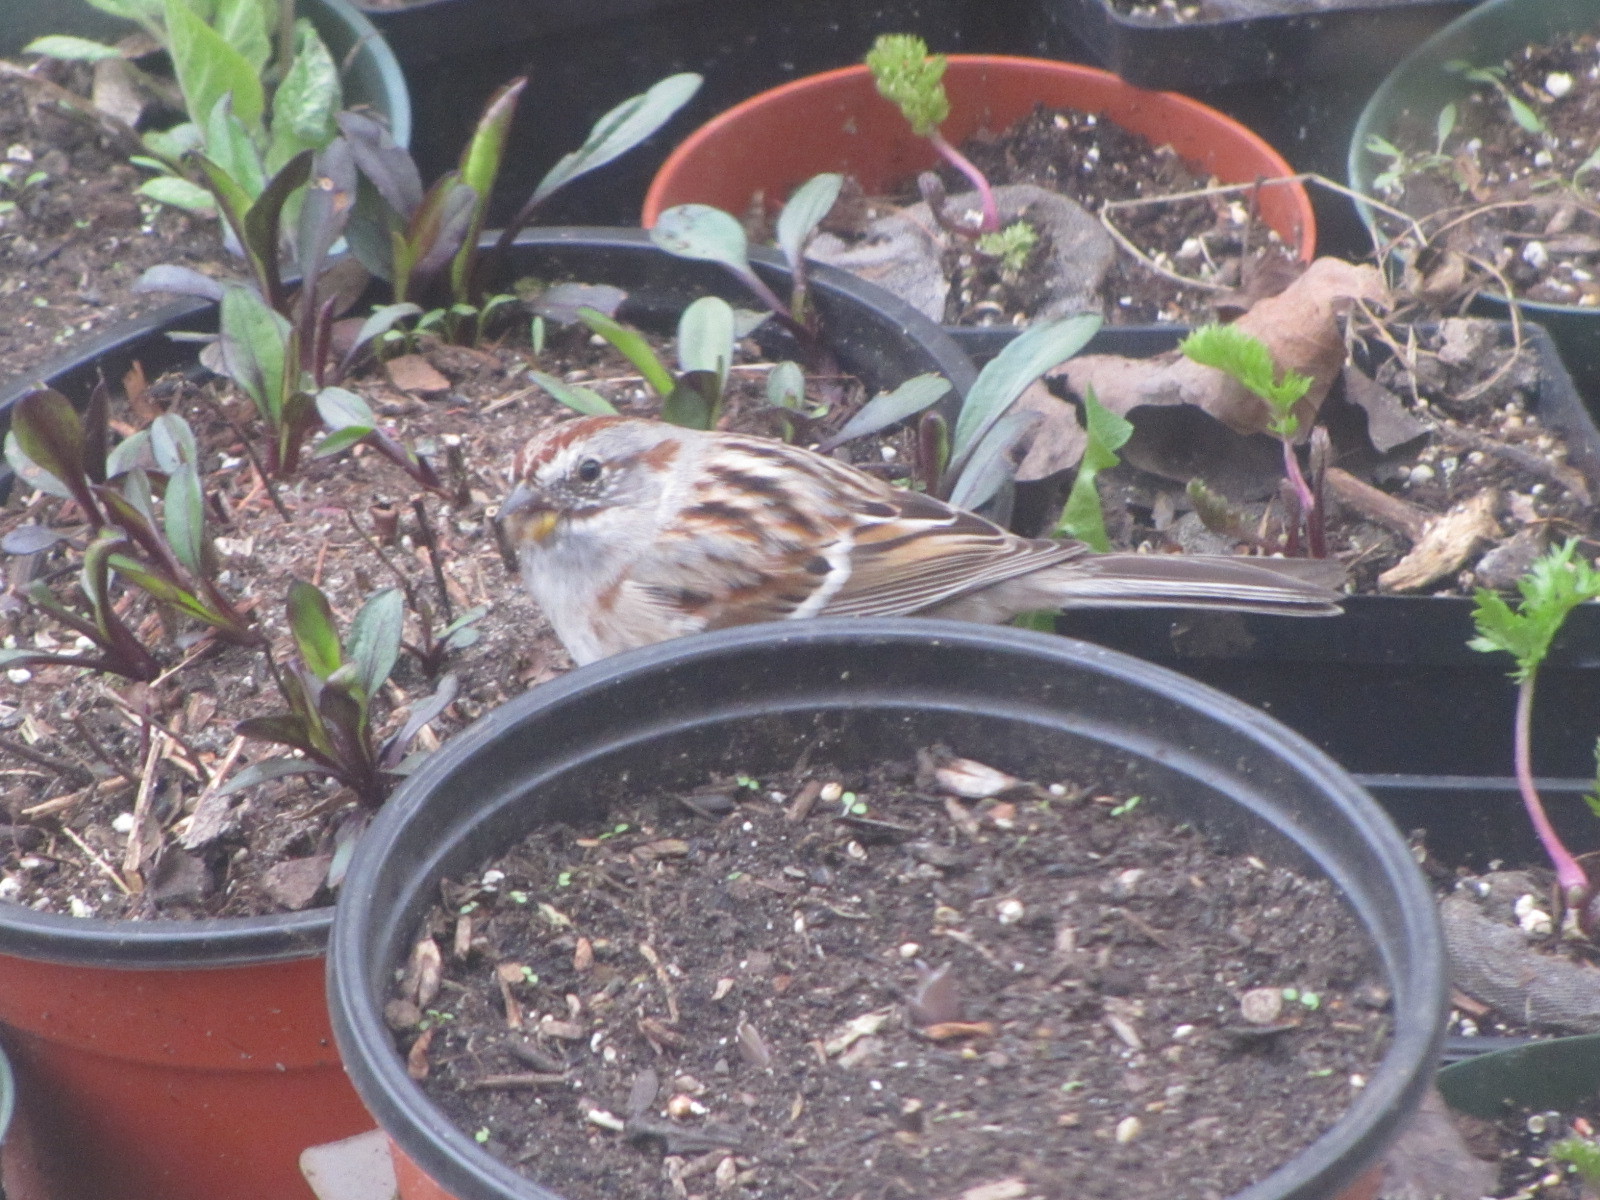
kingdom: Animalia
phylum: Chordata
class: Aves
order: Passeriformes
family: Passerellidae
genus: Spizelloides
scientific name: Spizelloides arborea
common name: American tree sparrow
